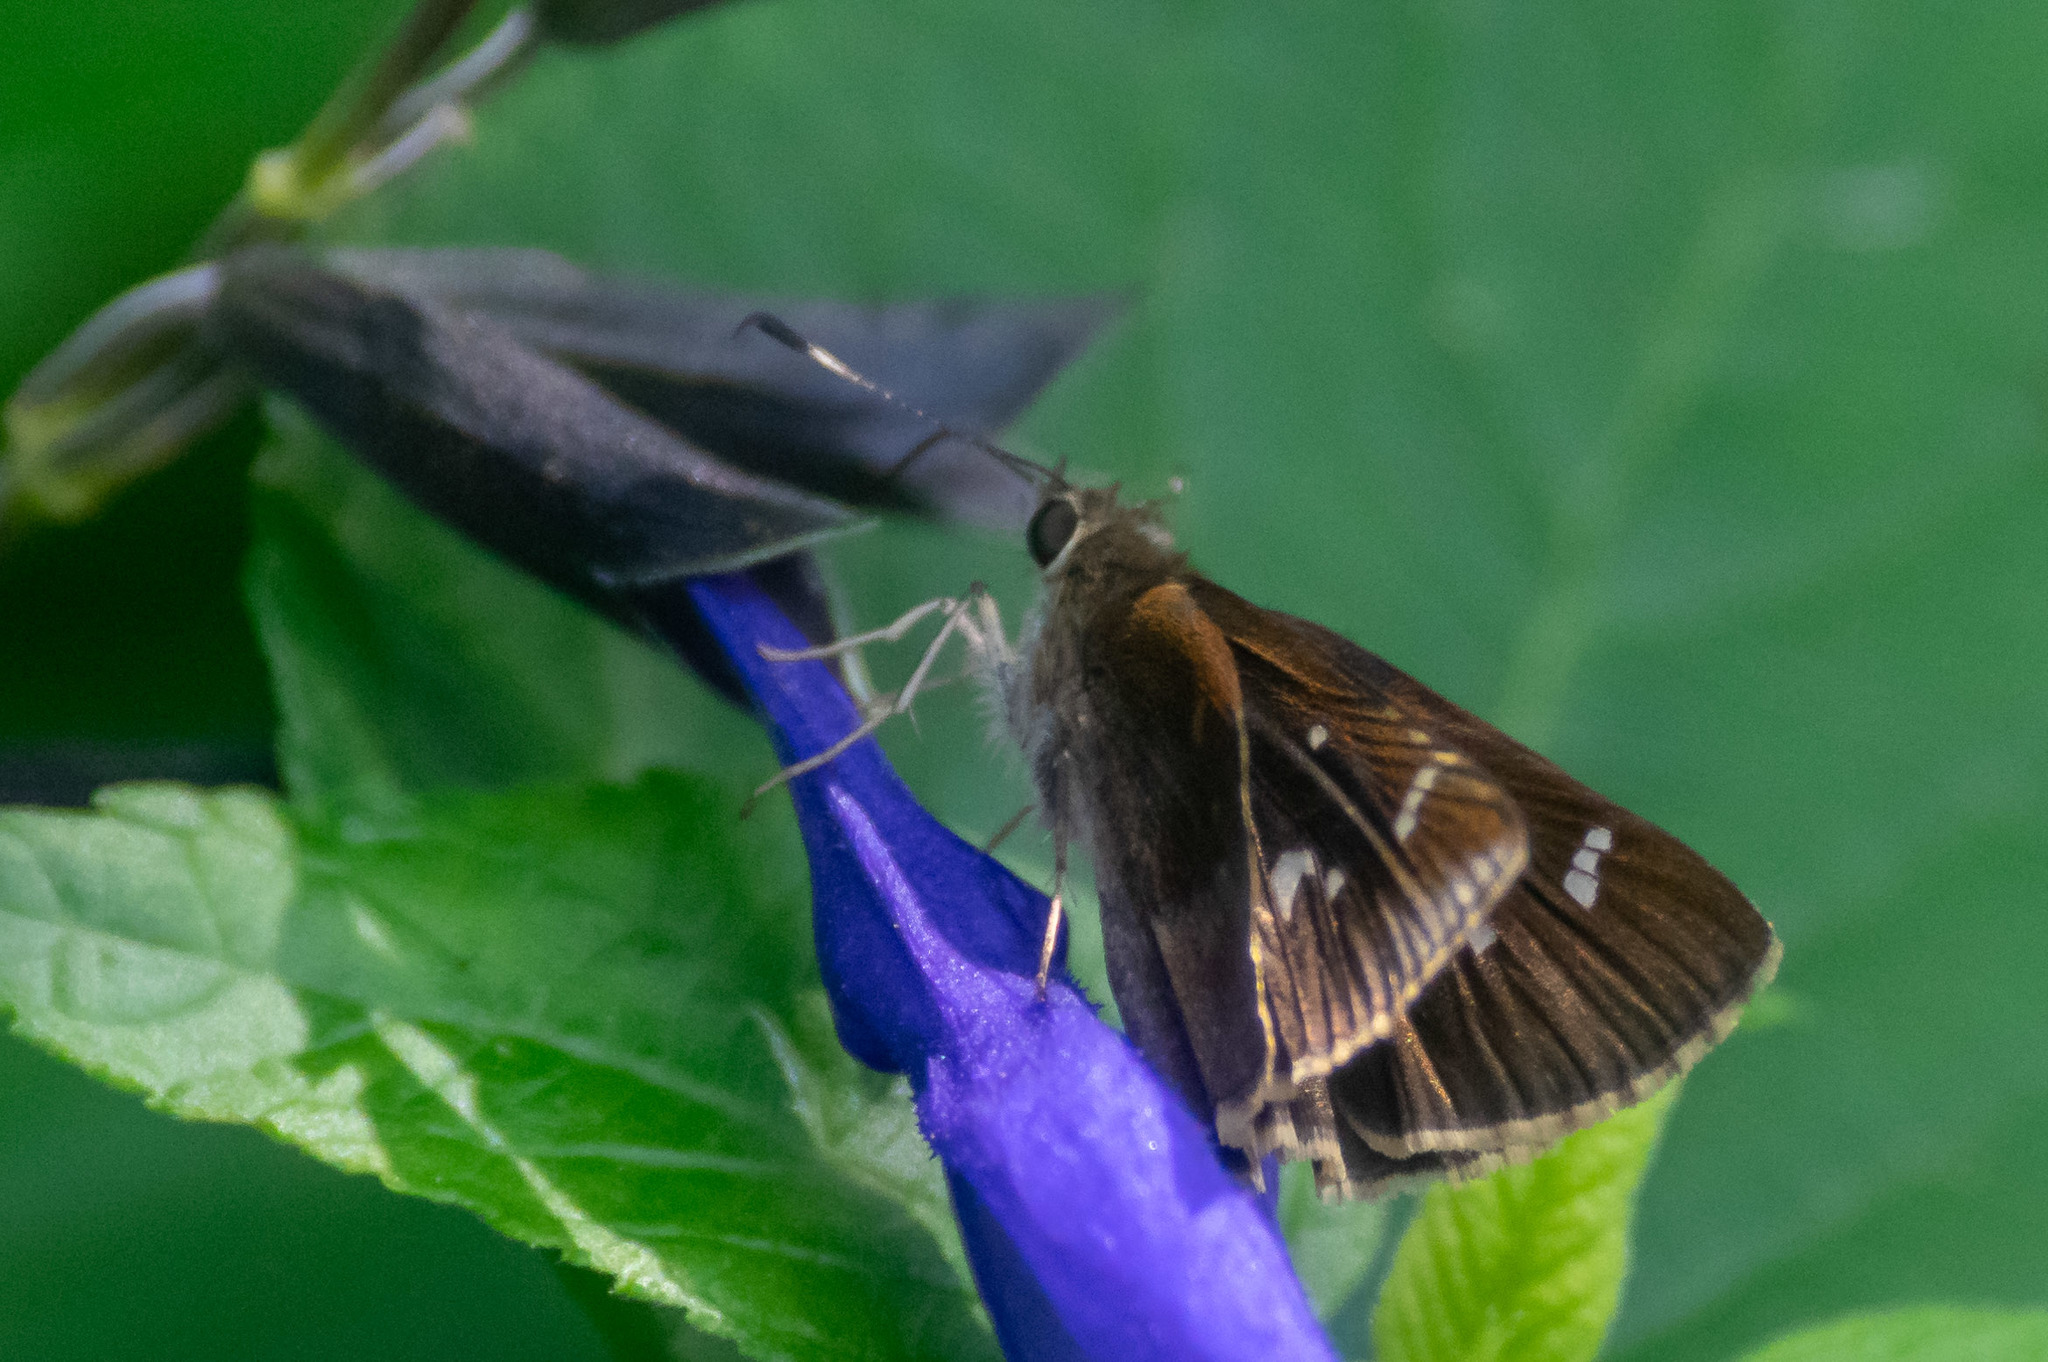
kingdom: Animalia
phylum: Arthropoda
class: Insecta
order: Lepidoptera
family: Hesperiidae
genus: Lerema
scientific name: Lerema accius
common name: Clouded skipper
